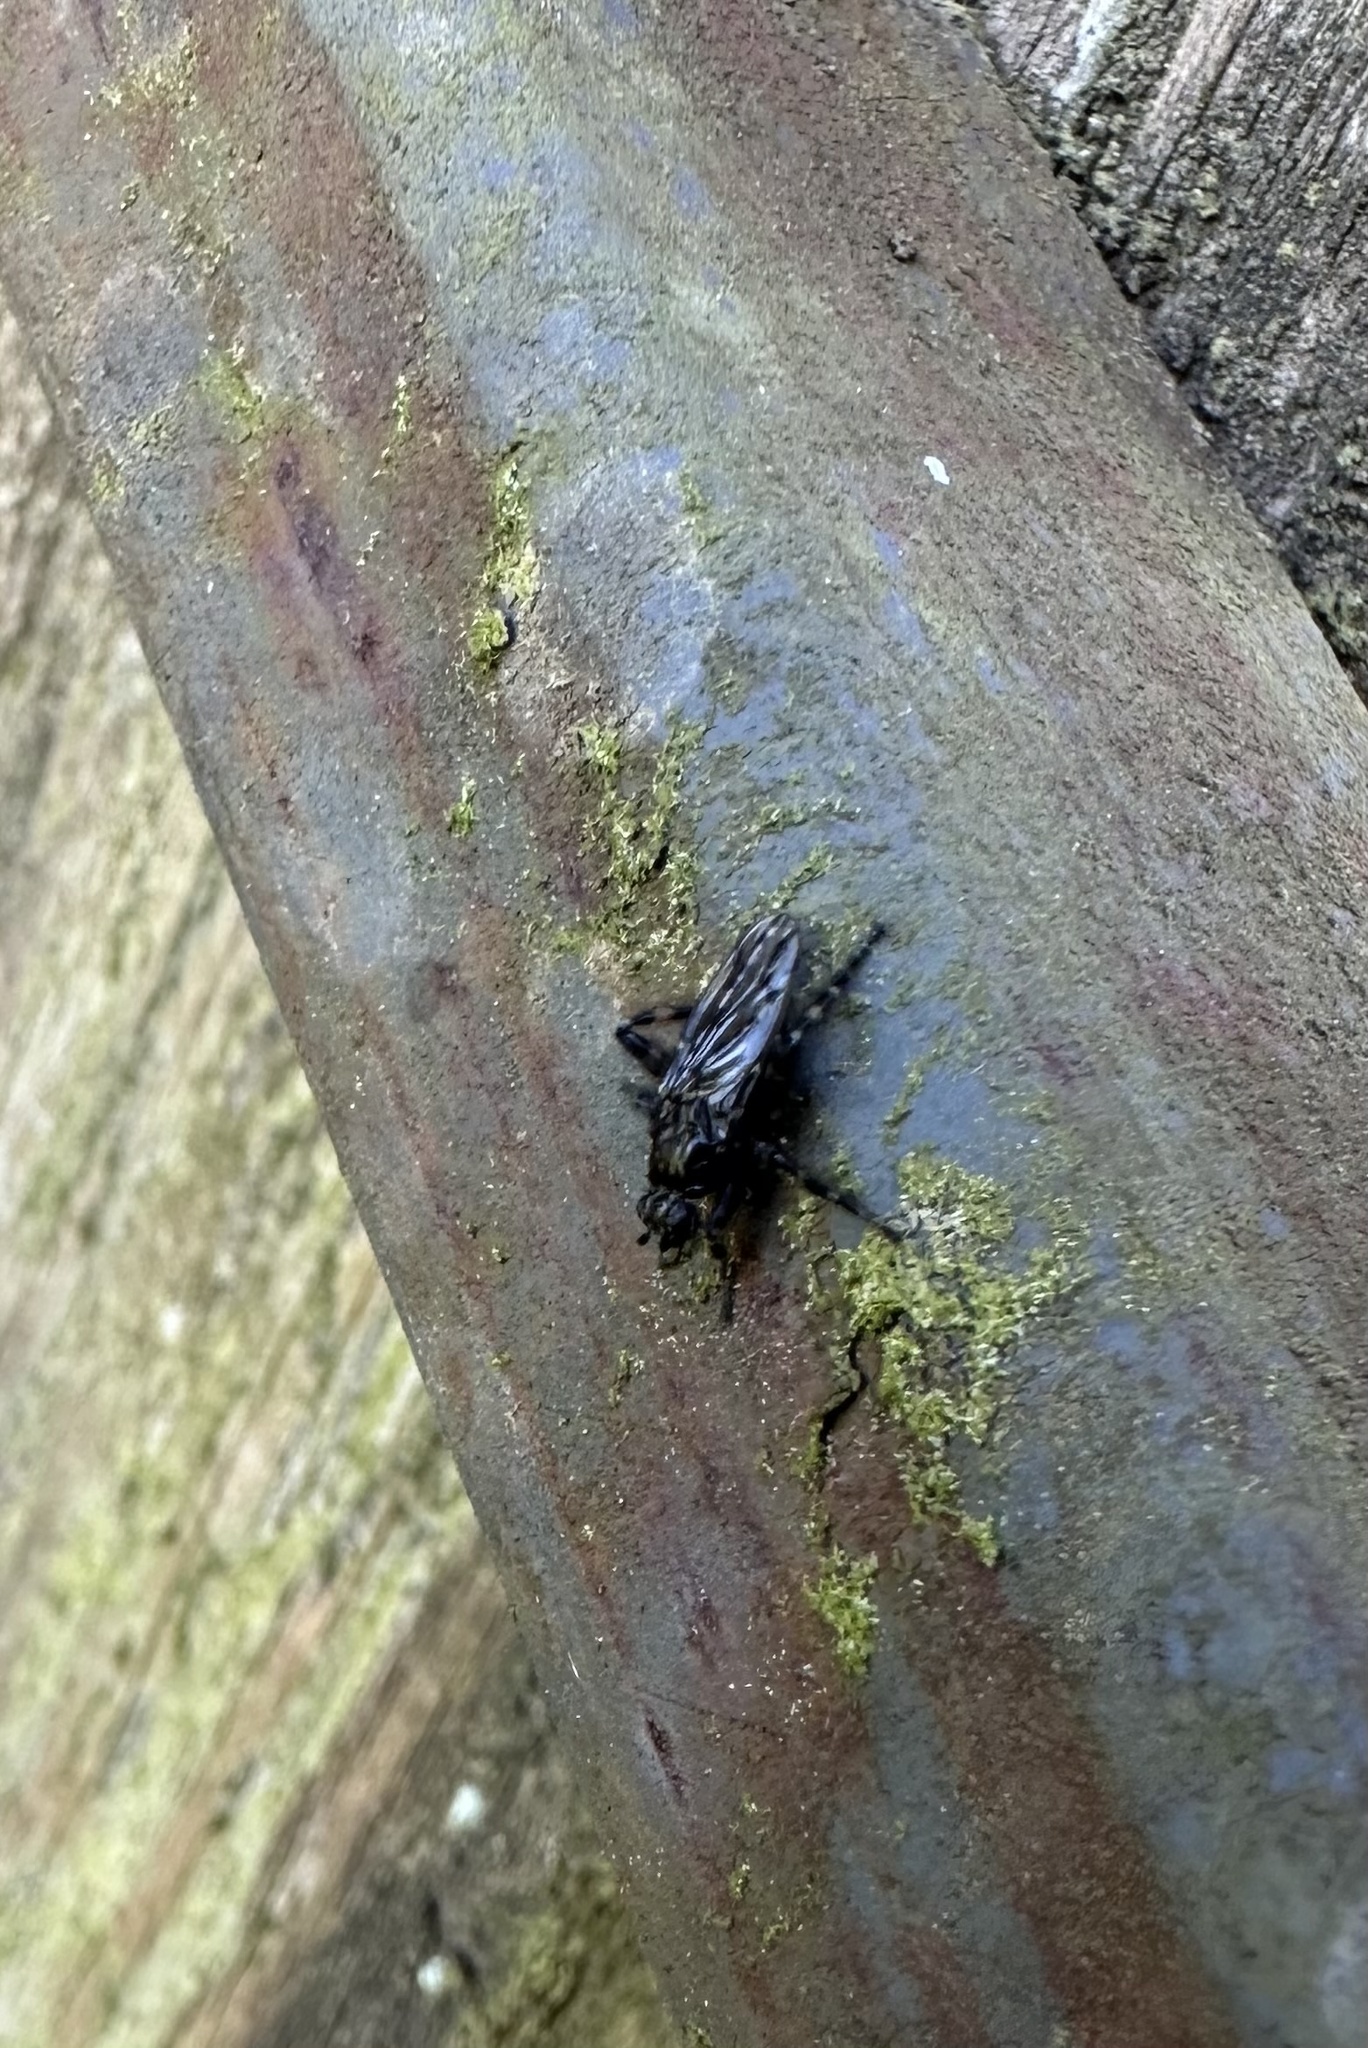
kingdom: Animalia
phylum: Arthropoda
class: Insecta
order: Diptera
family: Sphaeroceridae
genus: Maculantrops
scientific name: Maculantrops hirtipes
